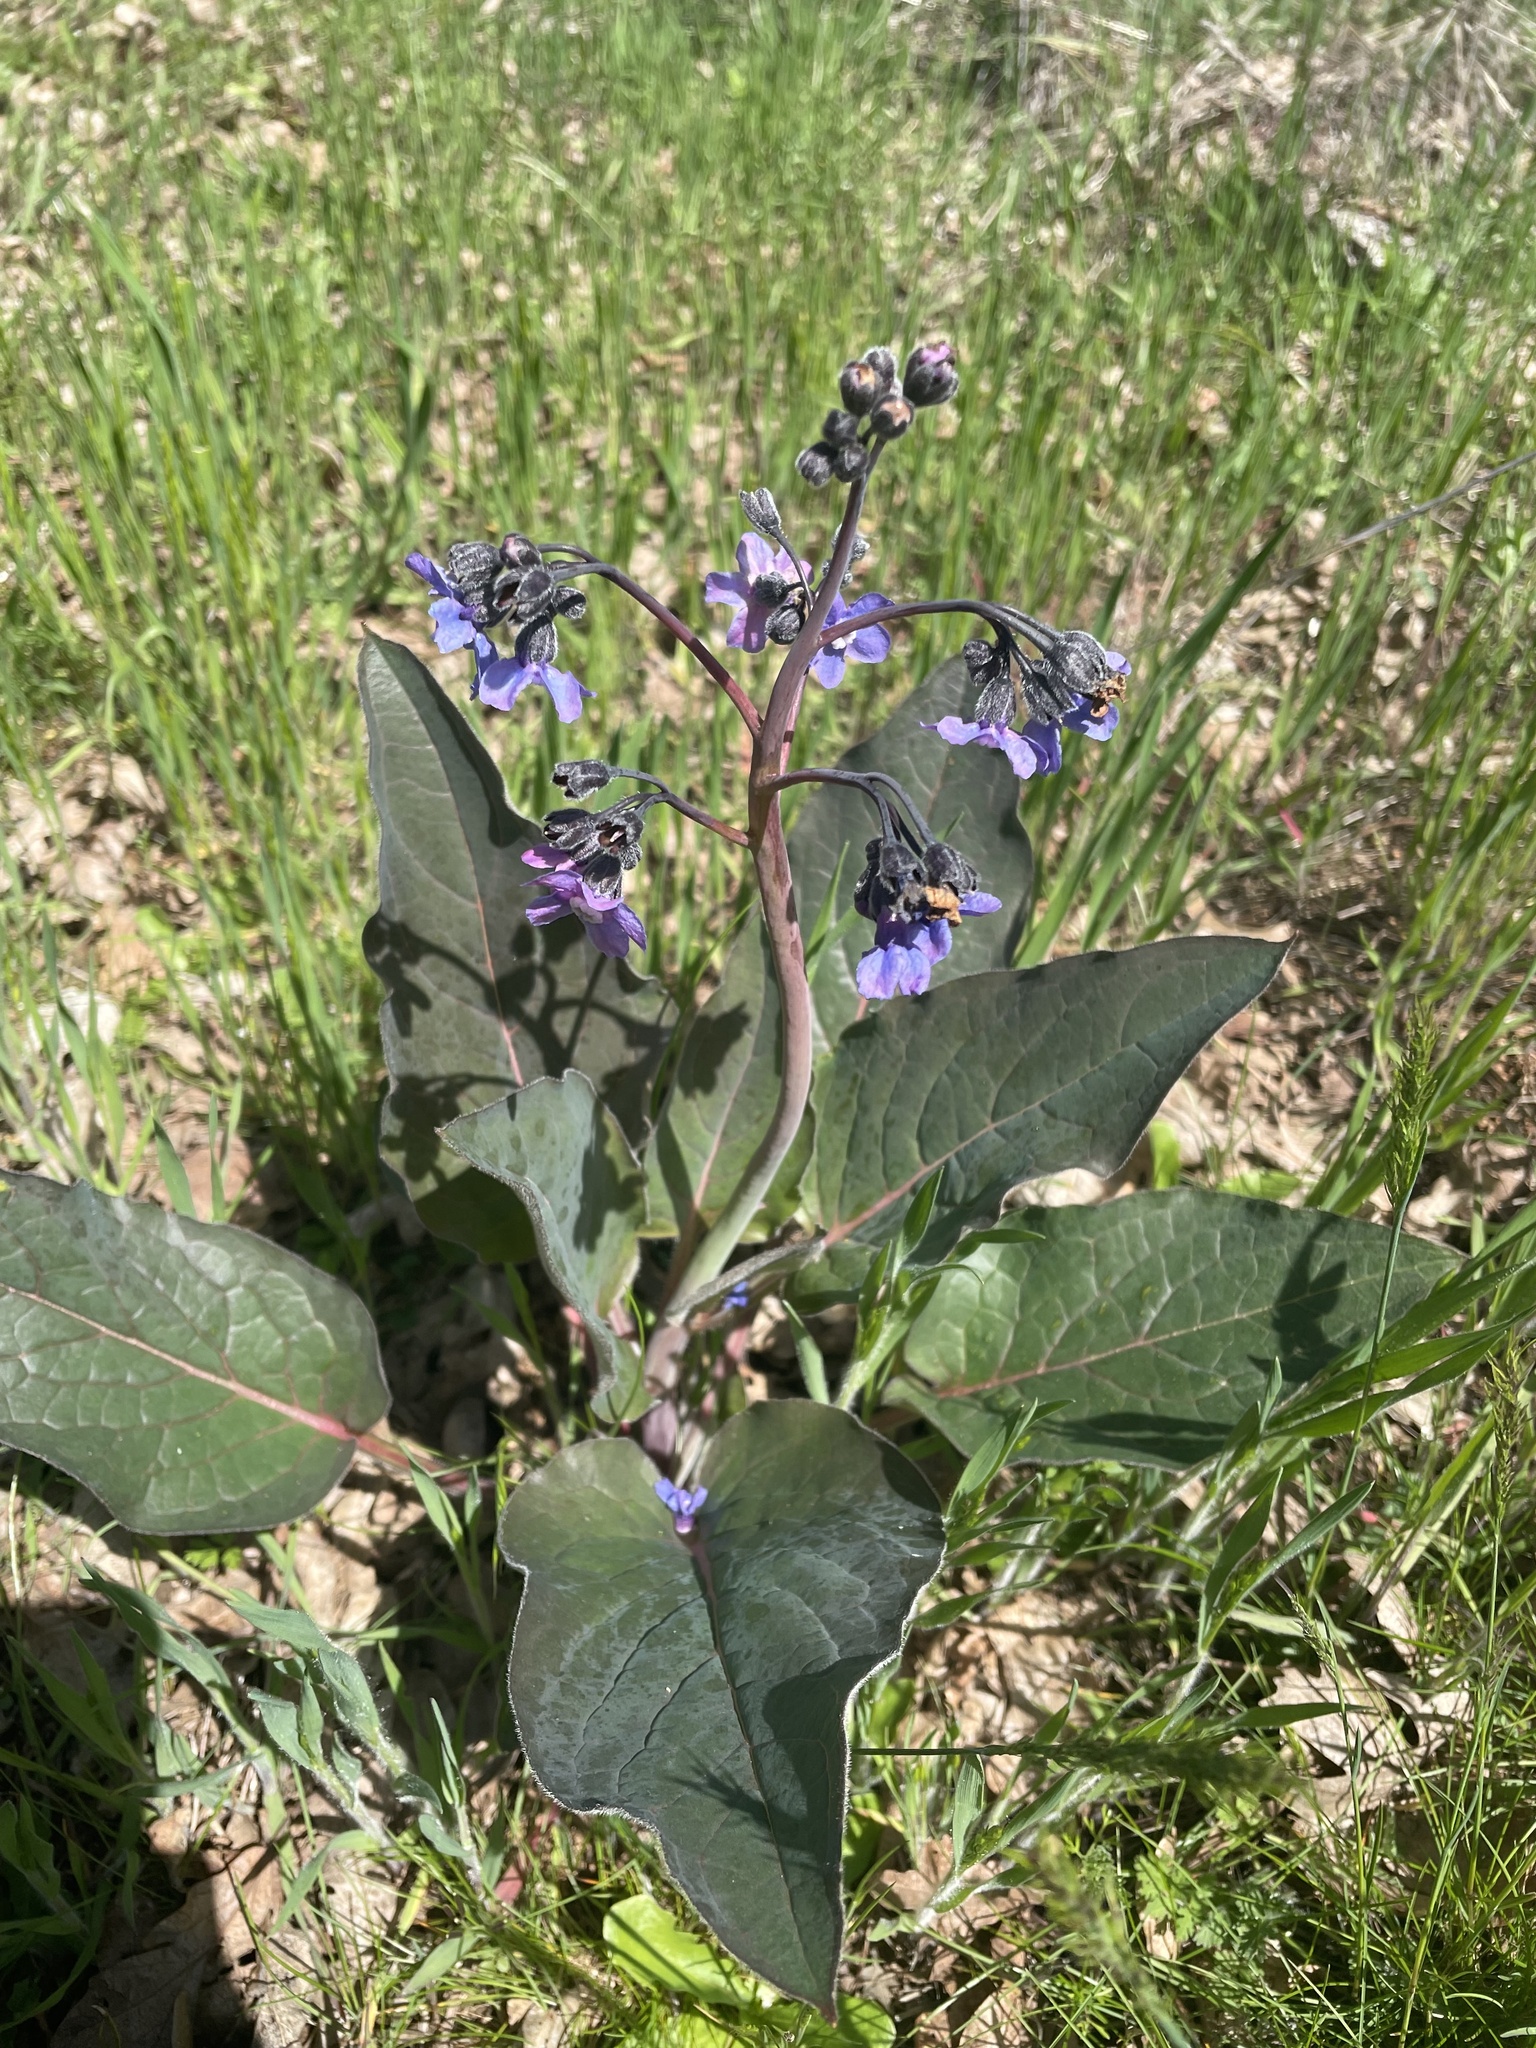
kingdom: Plantae
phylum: Tracheophyta
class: Magnoliopsida
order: Boraginales
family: Boraginaceae
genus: Adelinia
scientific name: Adelinia grande
